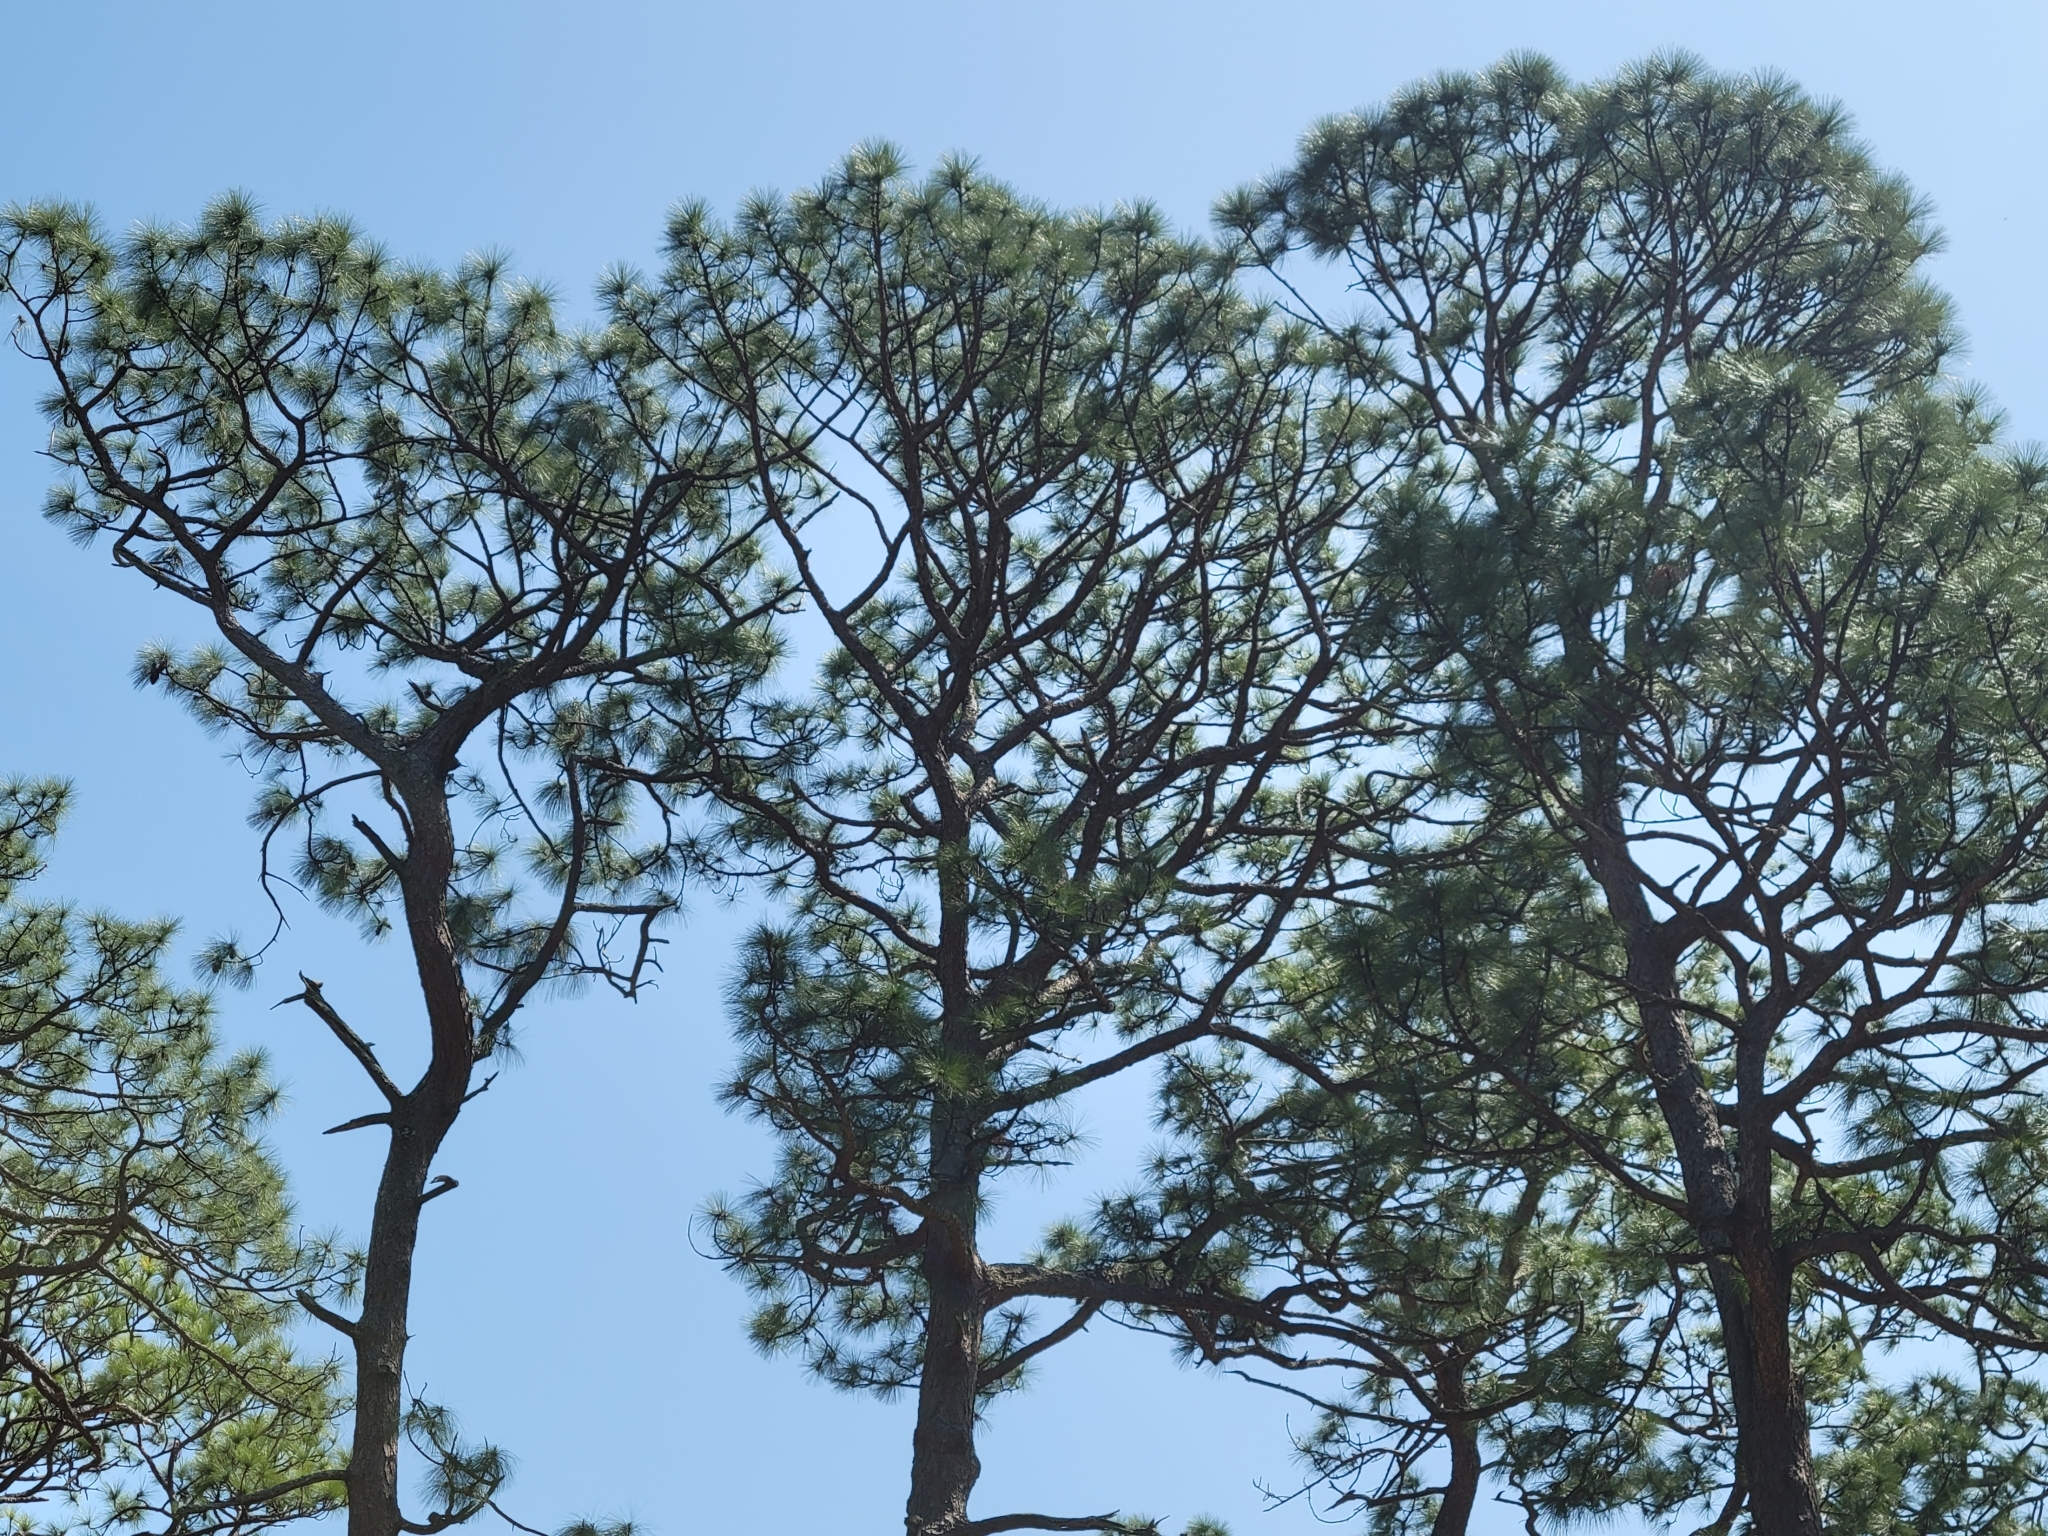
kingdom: Plantae
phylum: Tracheophyta
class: Pinopsida
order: Pinales
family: Pinaceae
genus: Pinus
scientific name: Pinus palustris
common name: Longleaf pine
